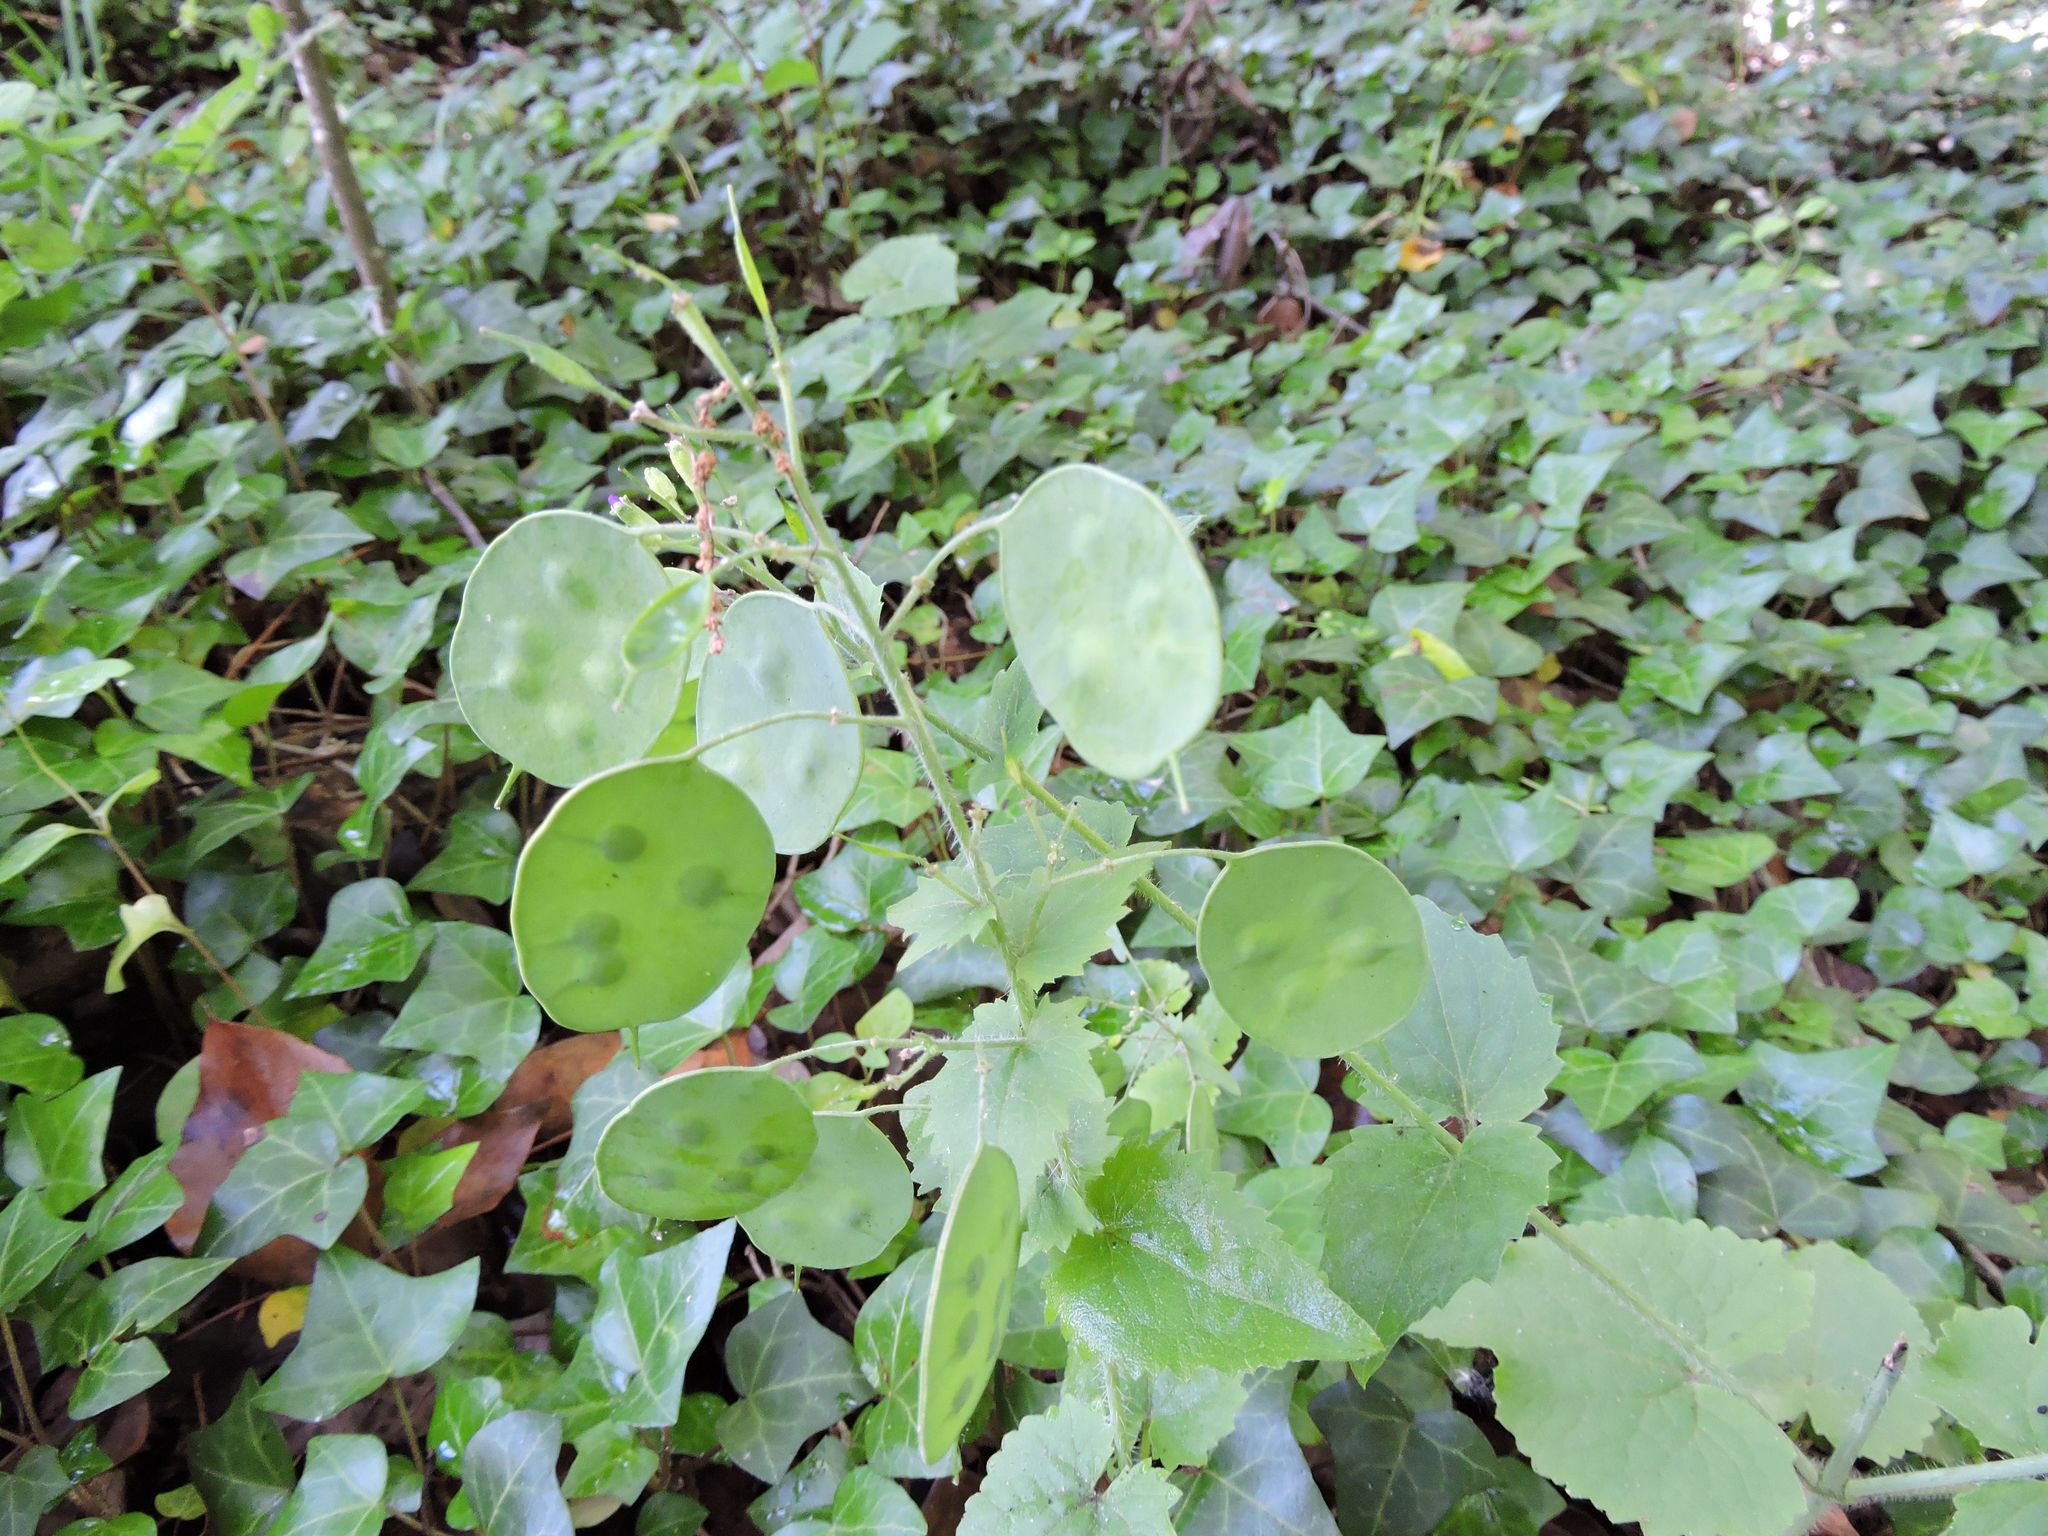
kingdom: Plantae
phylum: Tracheophyta
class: Magnoliopsida
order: Brassicales
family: Brassicaceae
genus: Lunaria
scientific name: Lunaria annua
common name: Honesty
